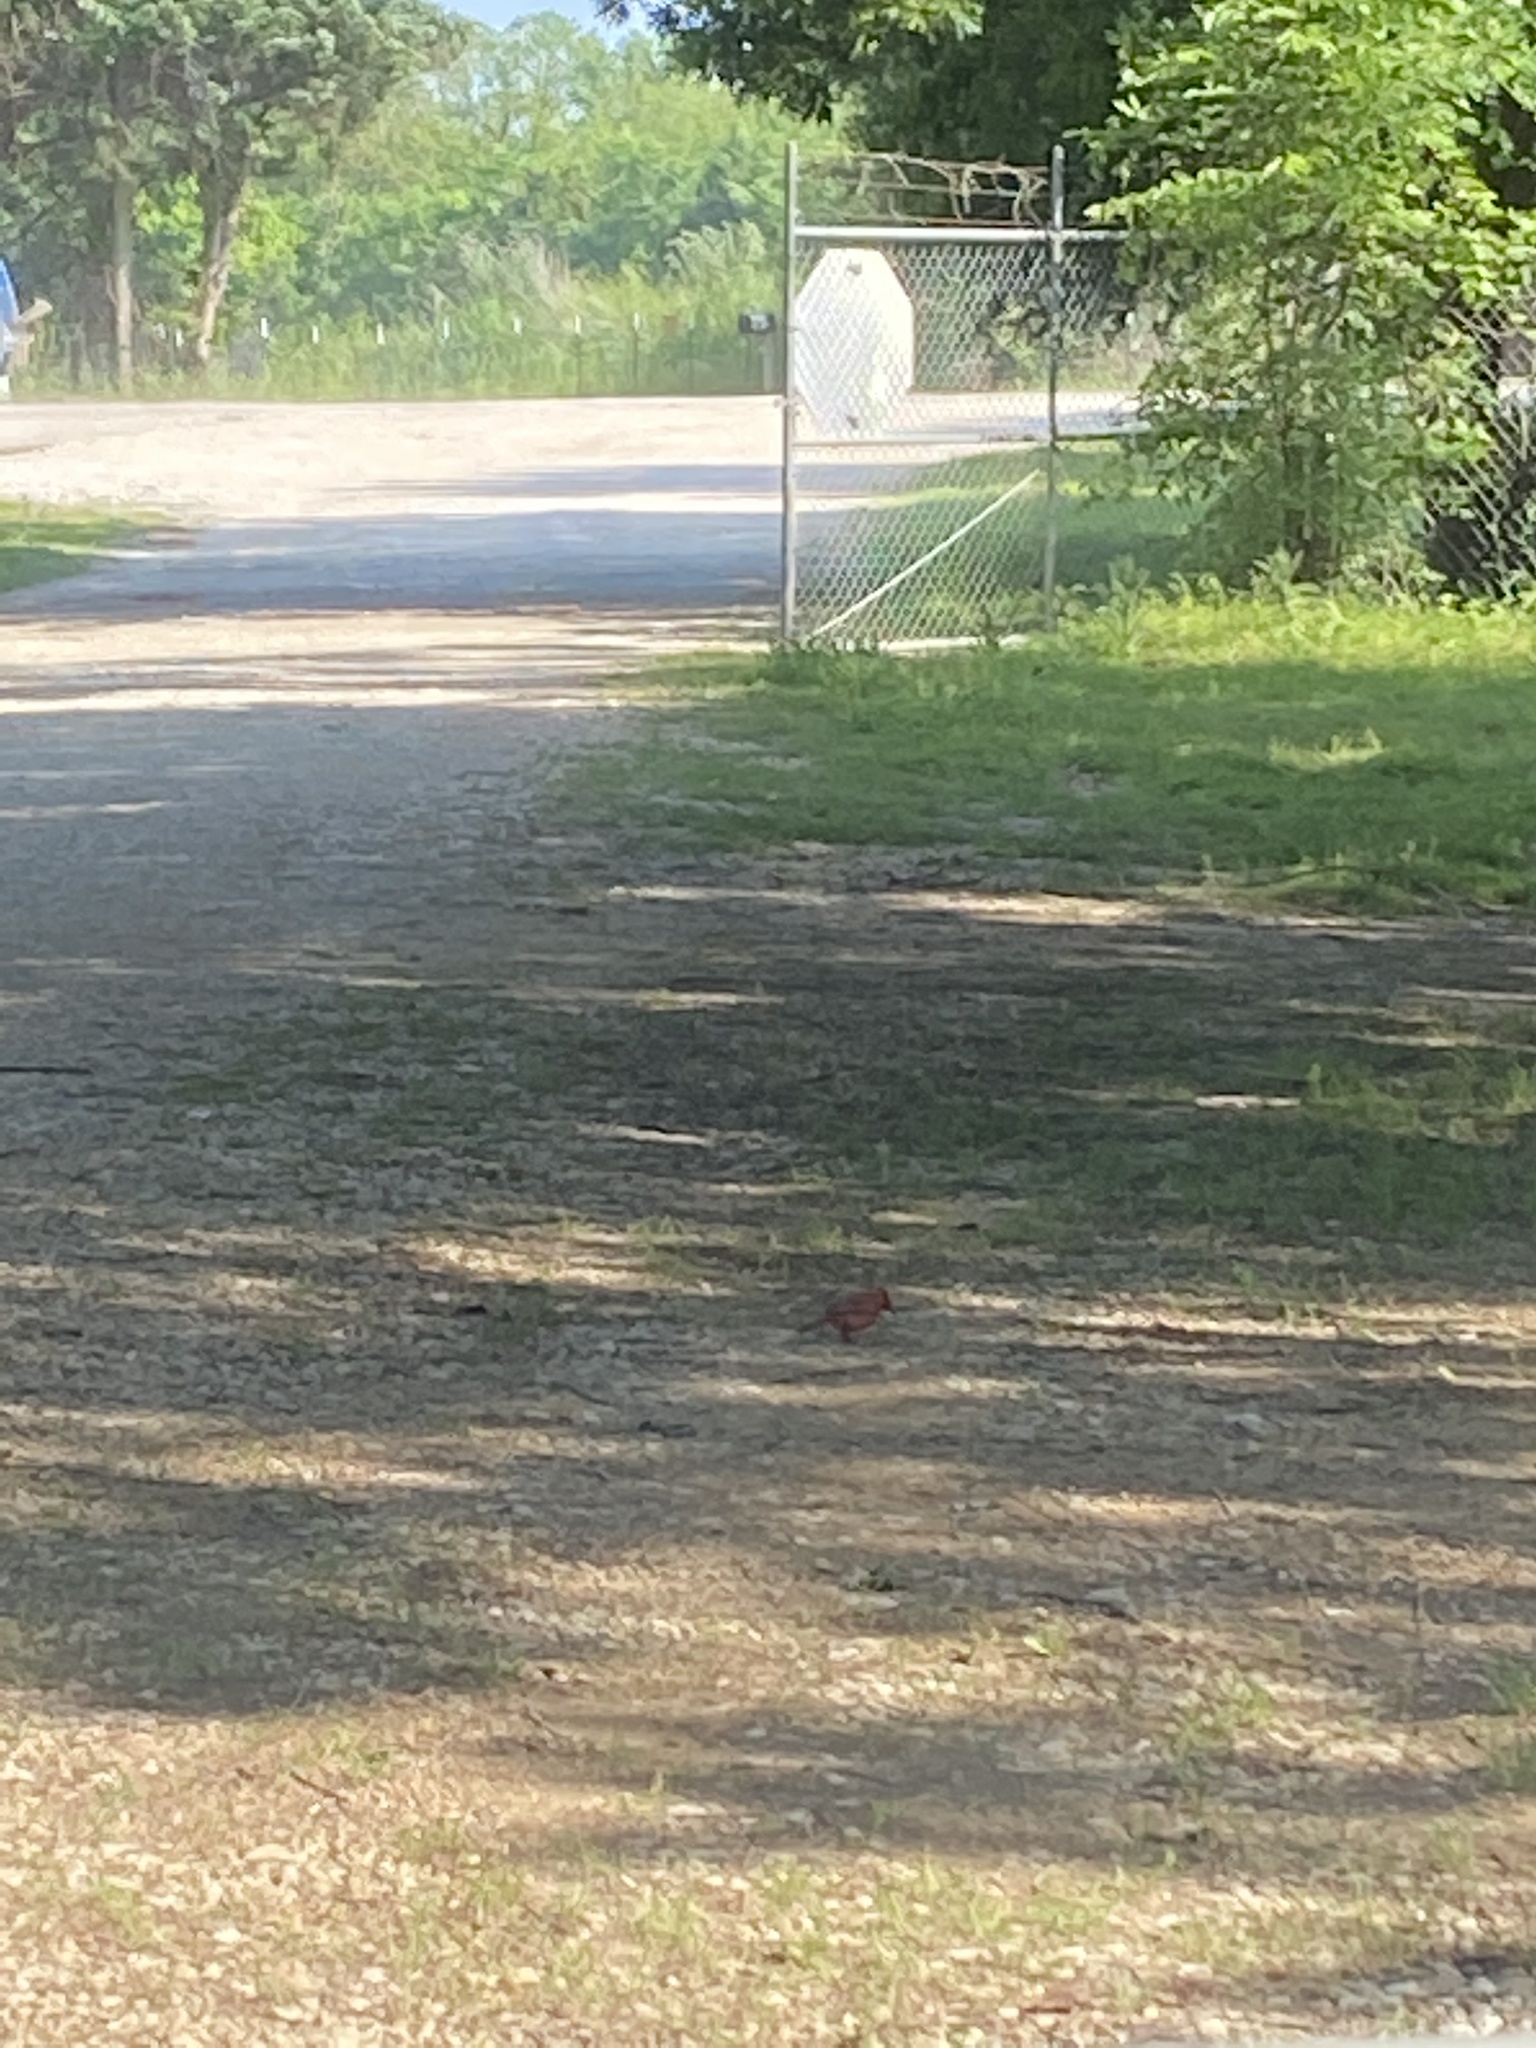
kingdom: Animalia
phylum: Chordata
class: Aves
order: Passeriformes
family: Cardinalidae
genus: Cardinalis
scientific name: Cardinalis cardinalis
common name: Northern cardinal
